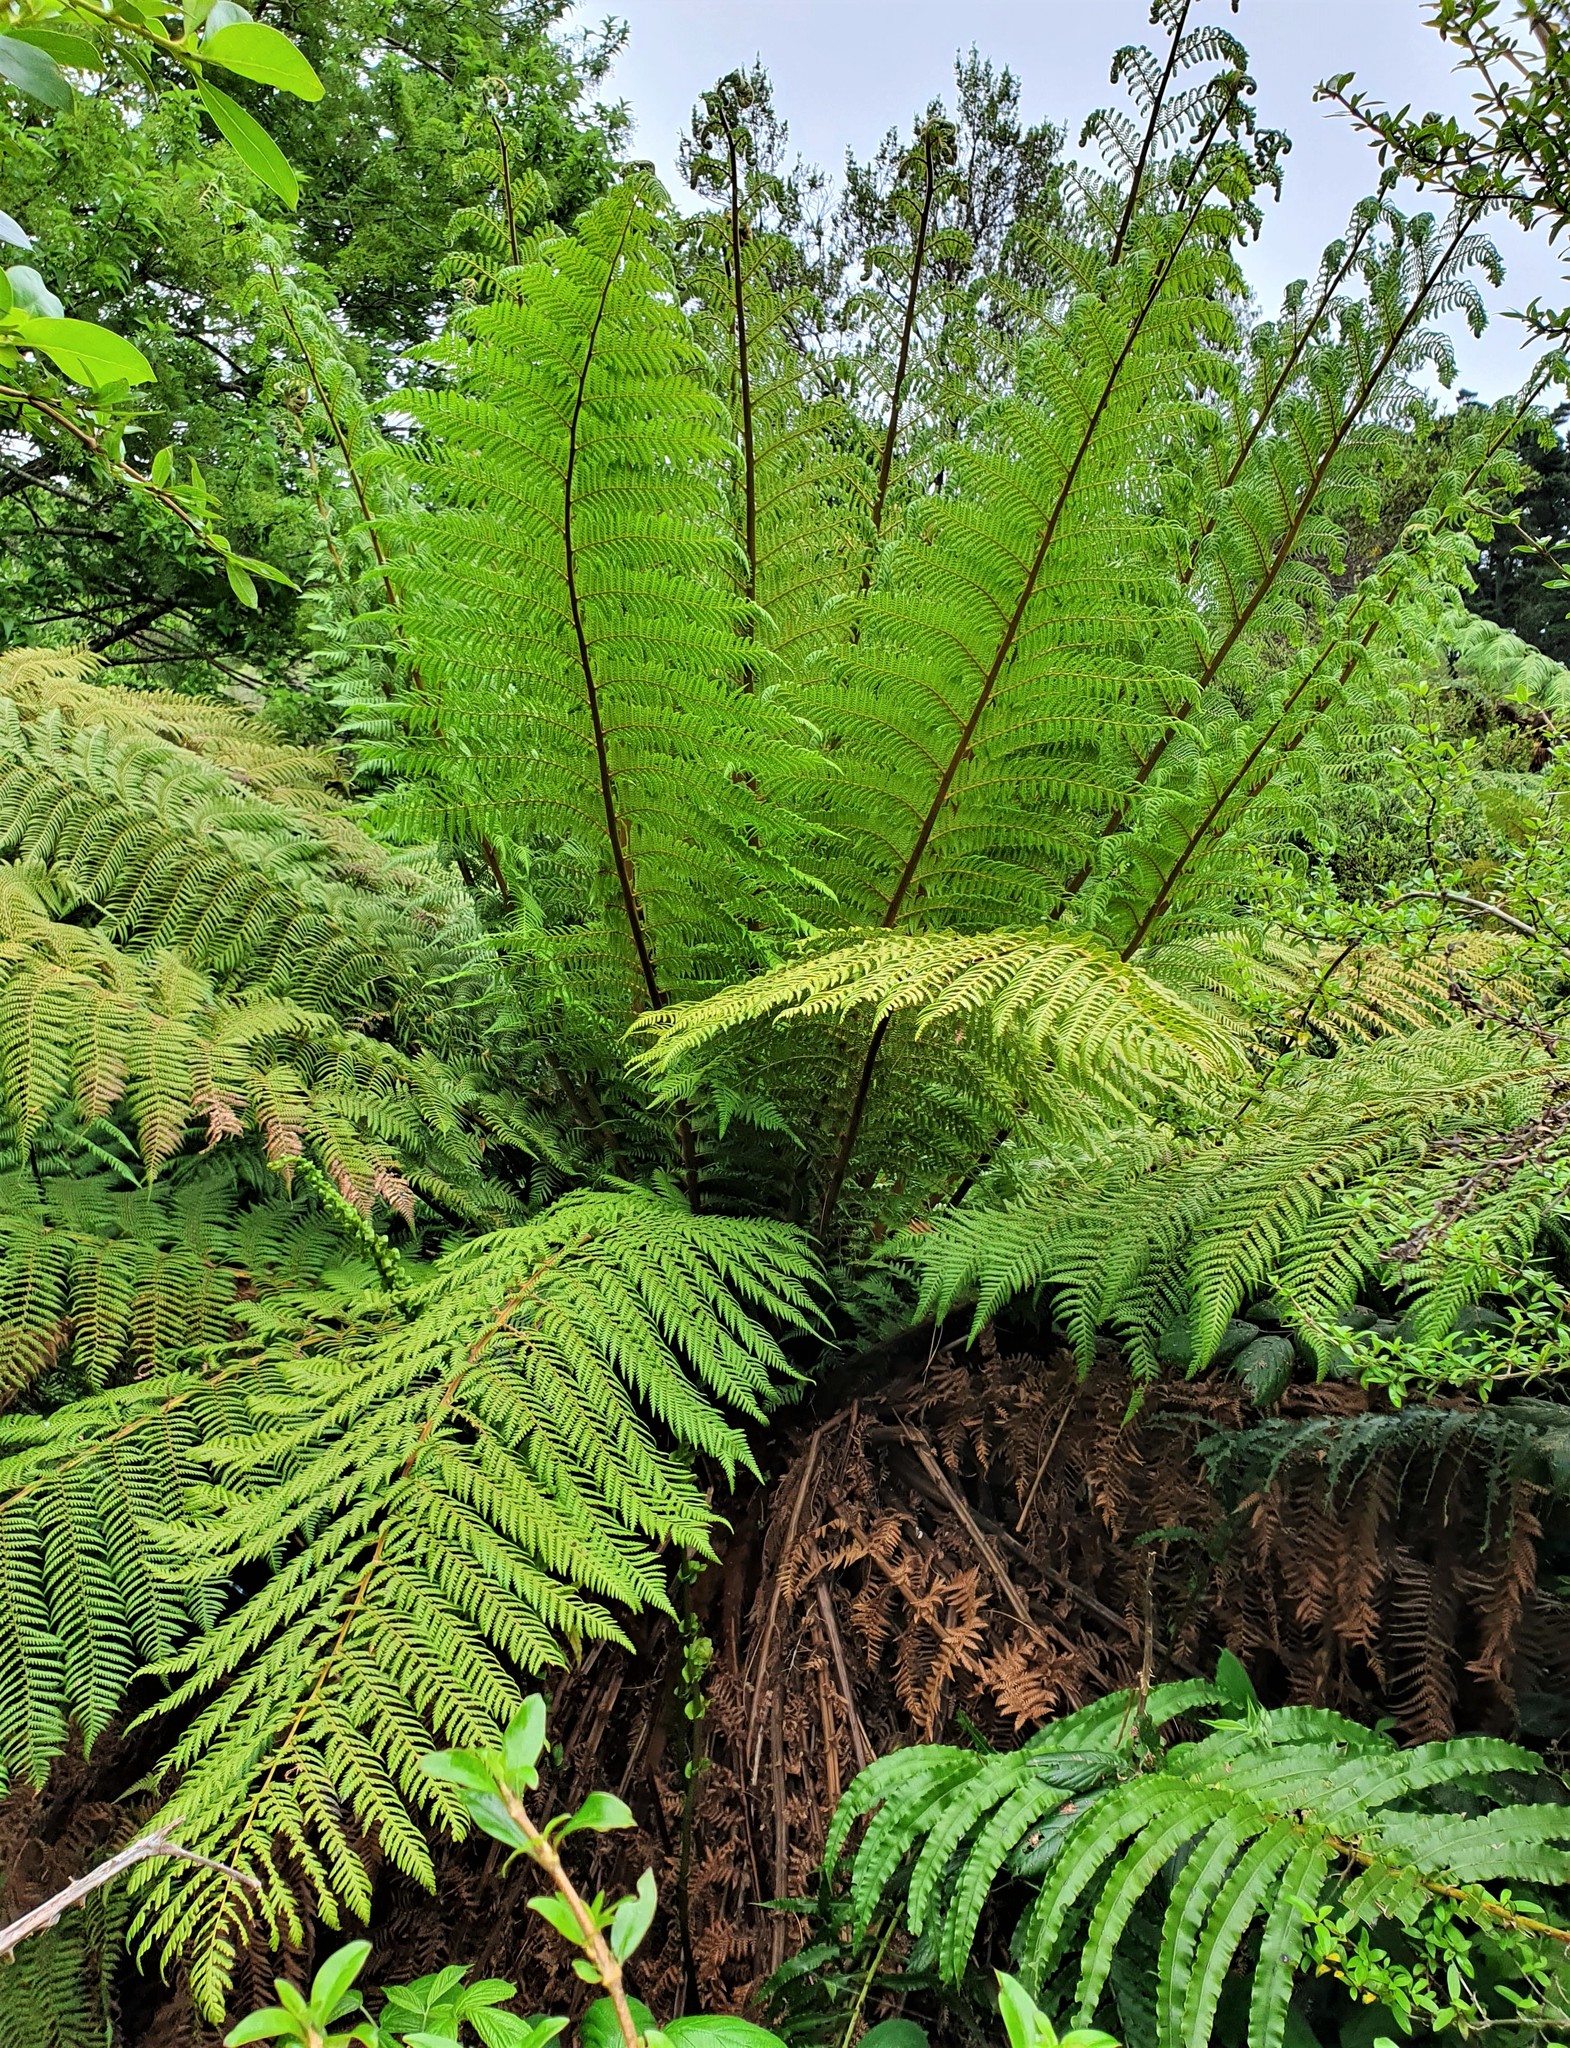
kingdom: Plantae
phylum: Tracheophyta
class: Polypodiopsida
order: Cyatheales
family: Dicksoniaceae
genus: Dicksonia
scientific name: Dicksonia fibrosa
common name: Golden tree fern
